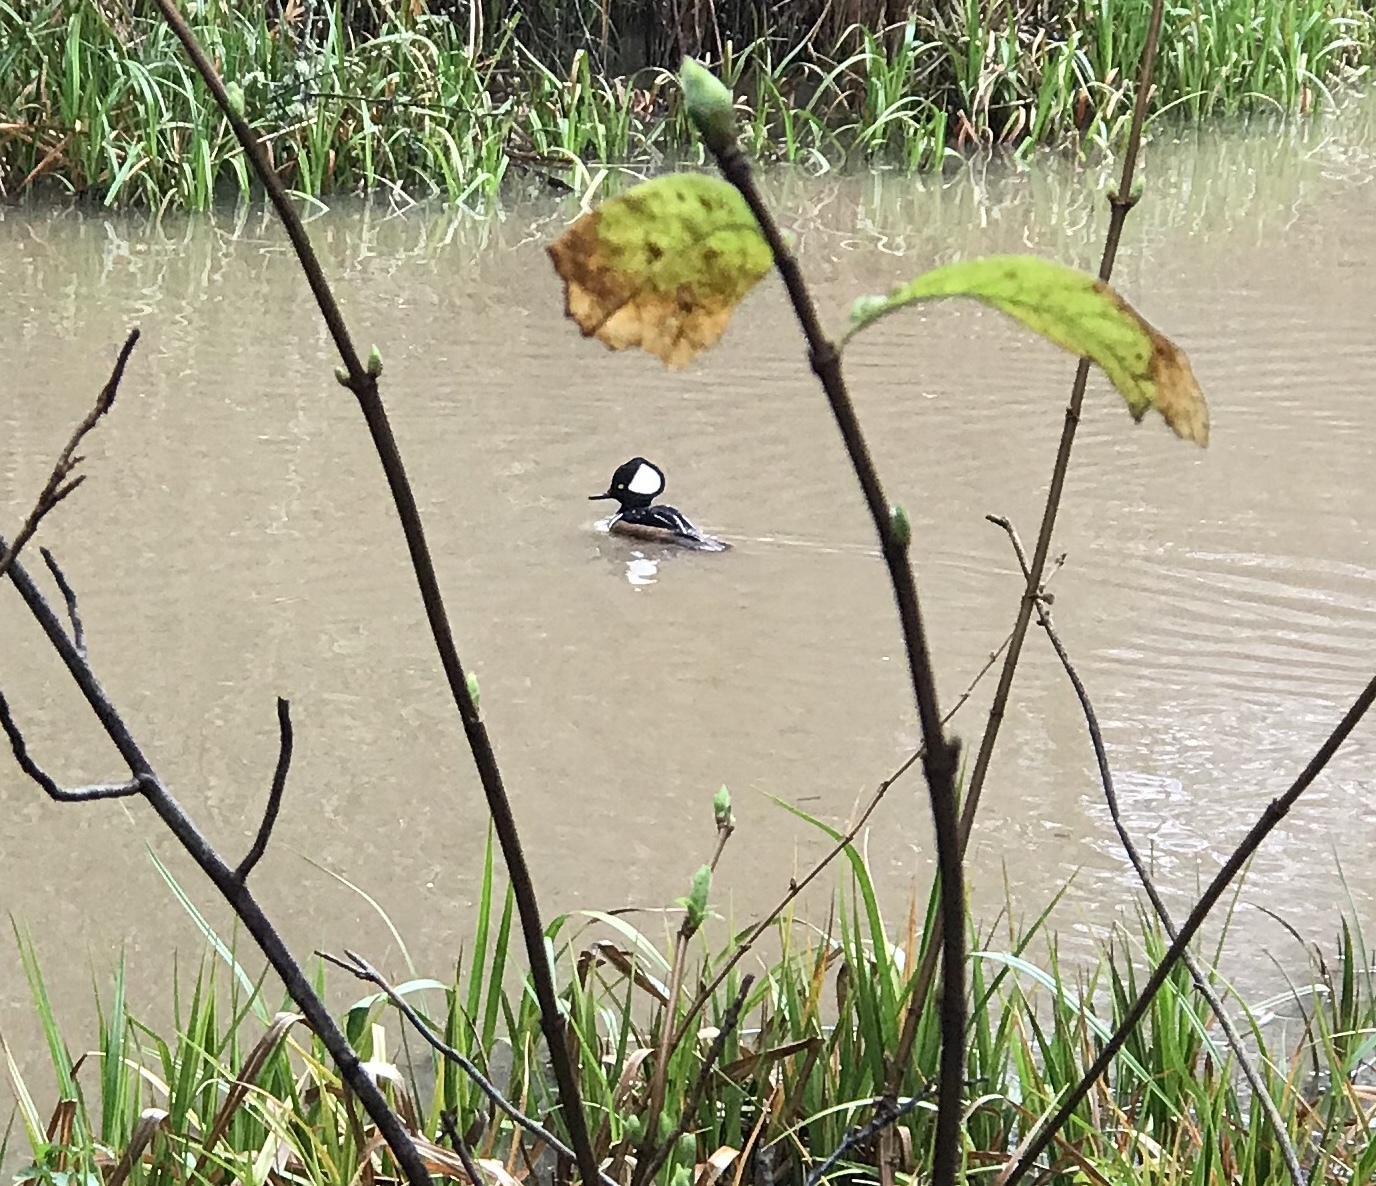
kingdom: Animalia
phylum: Chordata
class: Aves
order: Anseriformes
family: Anatidae
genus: Lophodytes
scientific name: Lophodytes cucullatus
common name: Hooded merganser
